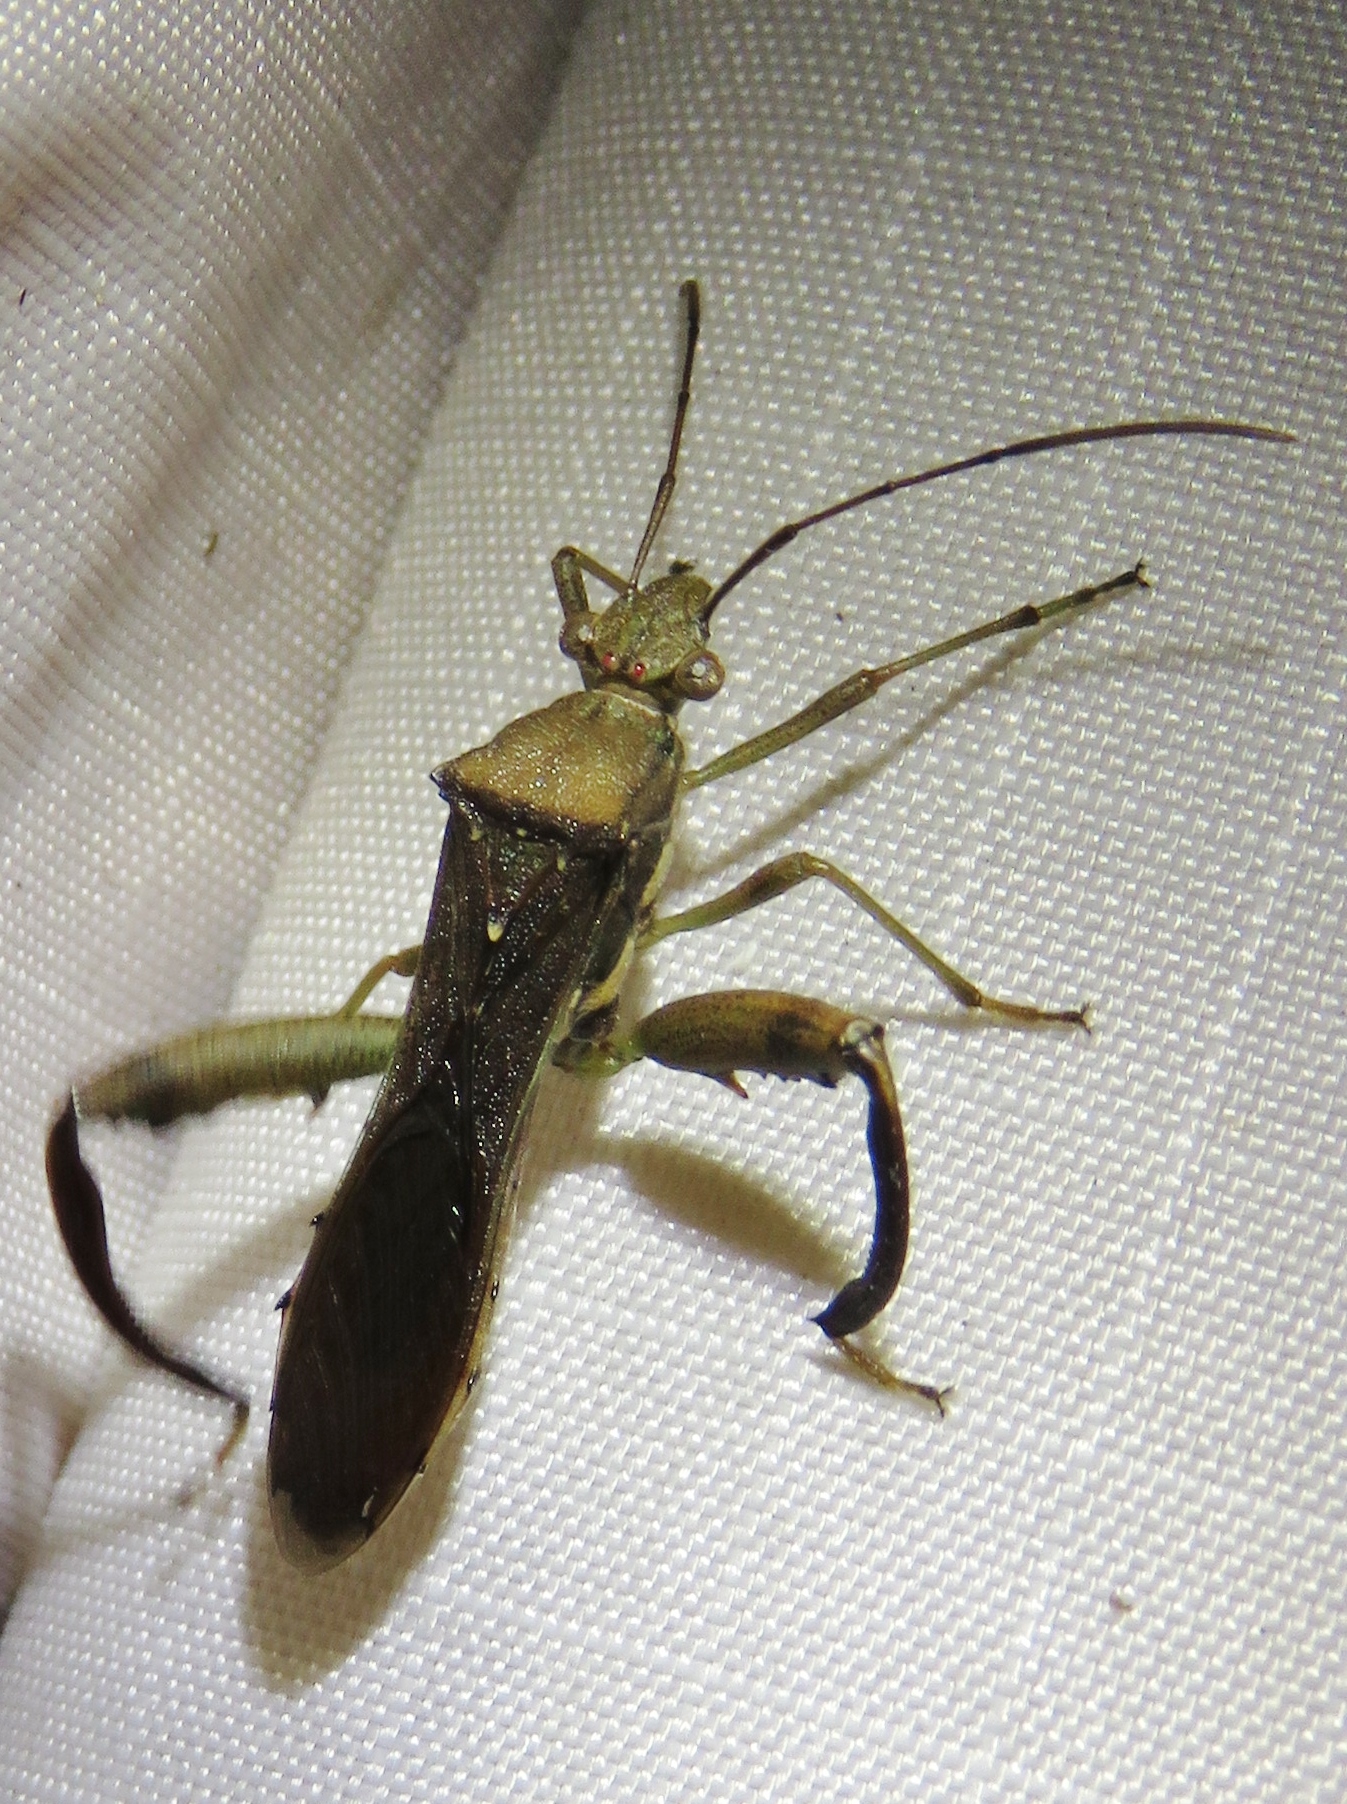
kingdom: Animalia
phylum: Arthropoda
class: Insecta
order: Hemiptera
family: Alydidae
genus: Hyalymenus
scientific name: Hyalymenus tarsatus
